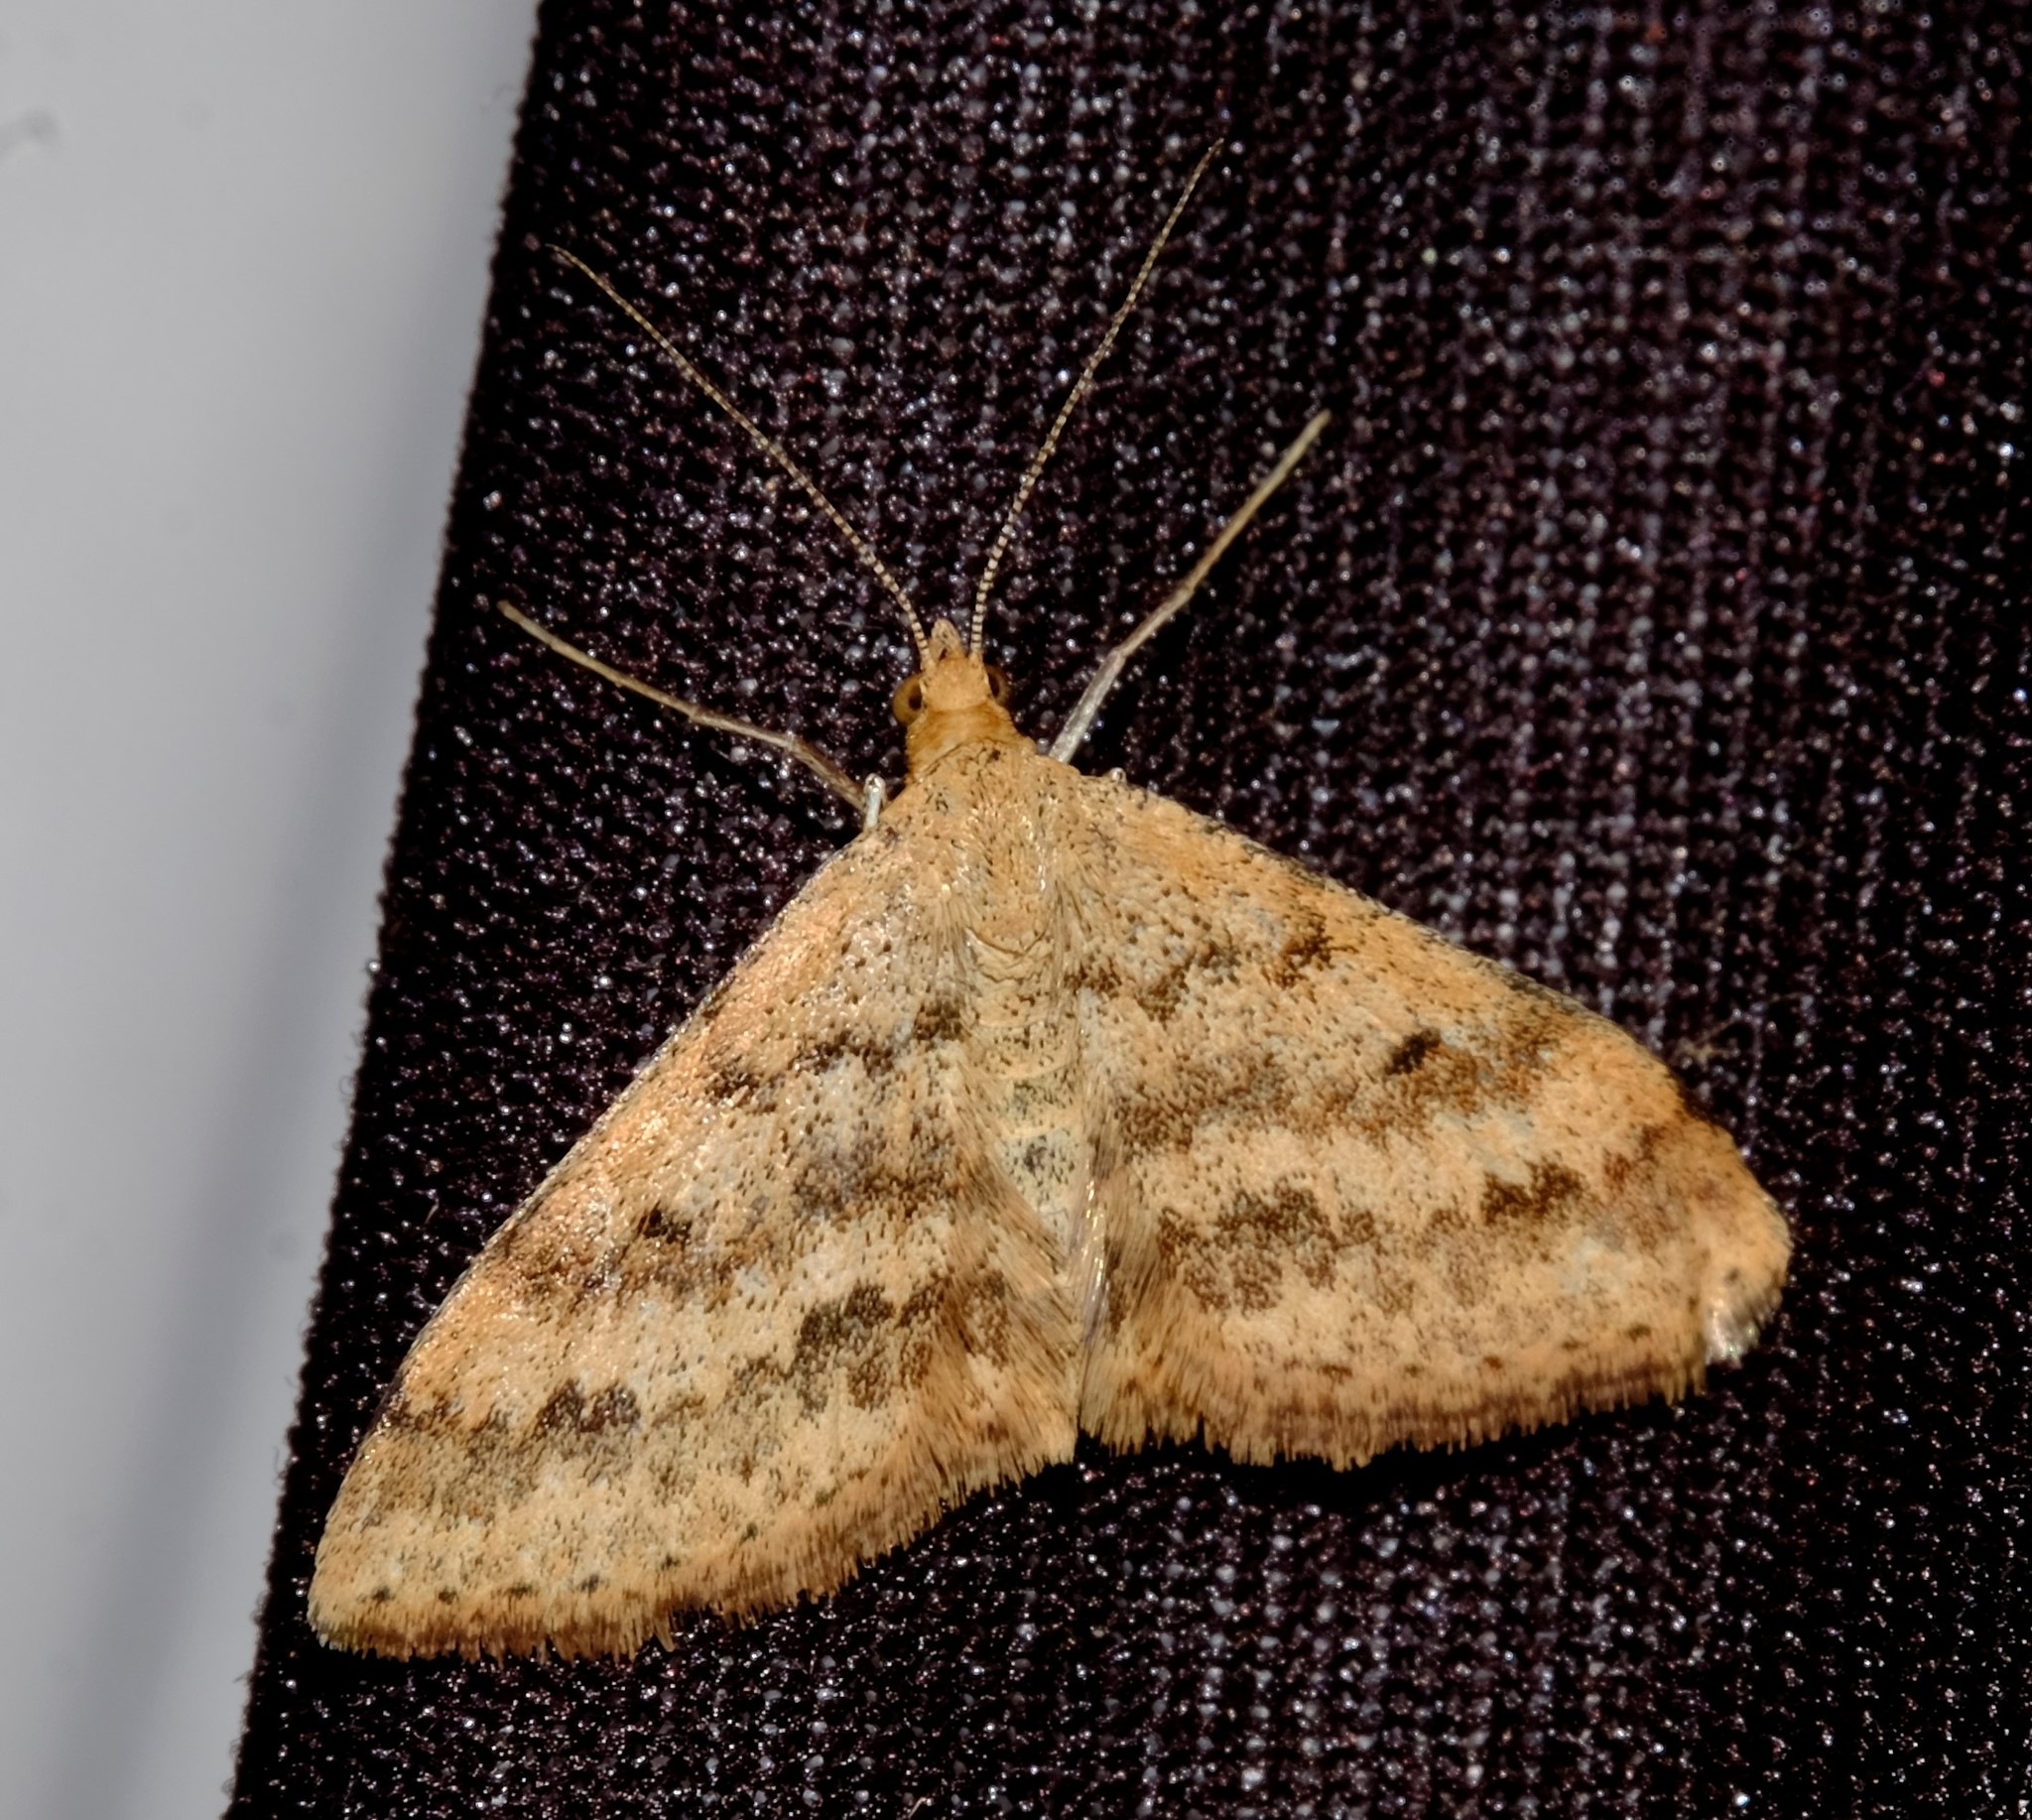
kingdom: Animalia
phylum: Arthropoda
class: Insecta
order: Lepidoptera
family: Geometridae
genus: Scopula
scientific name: Scopula rubraria
